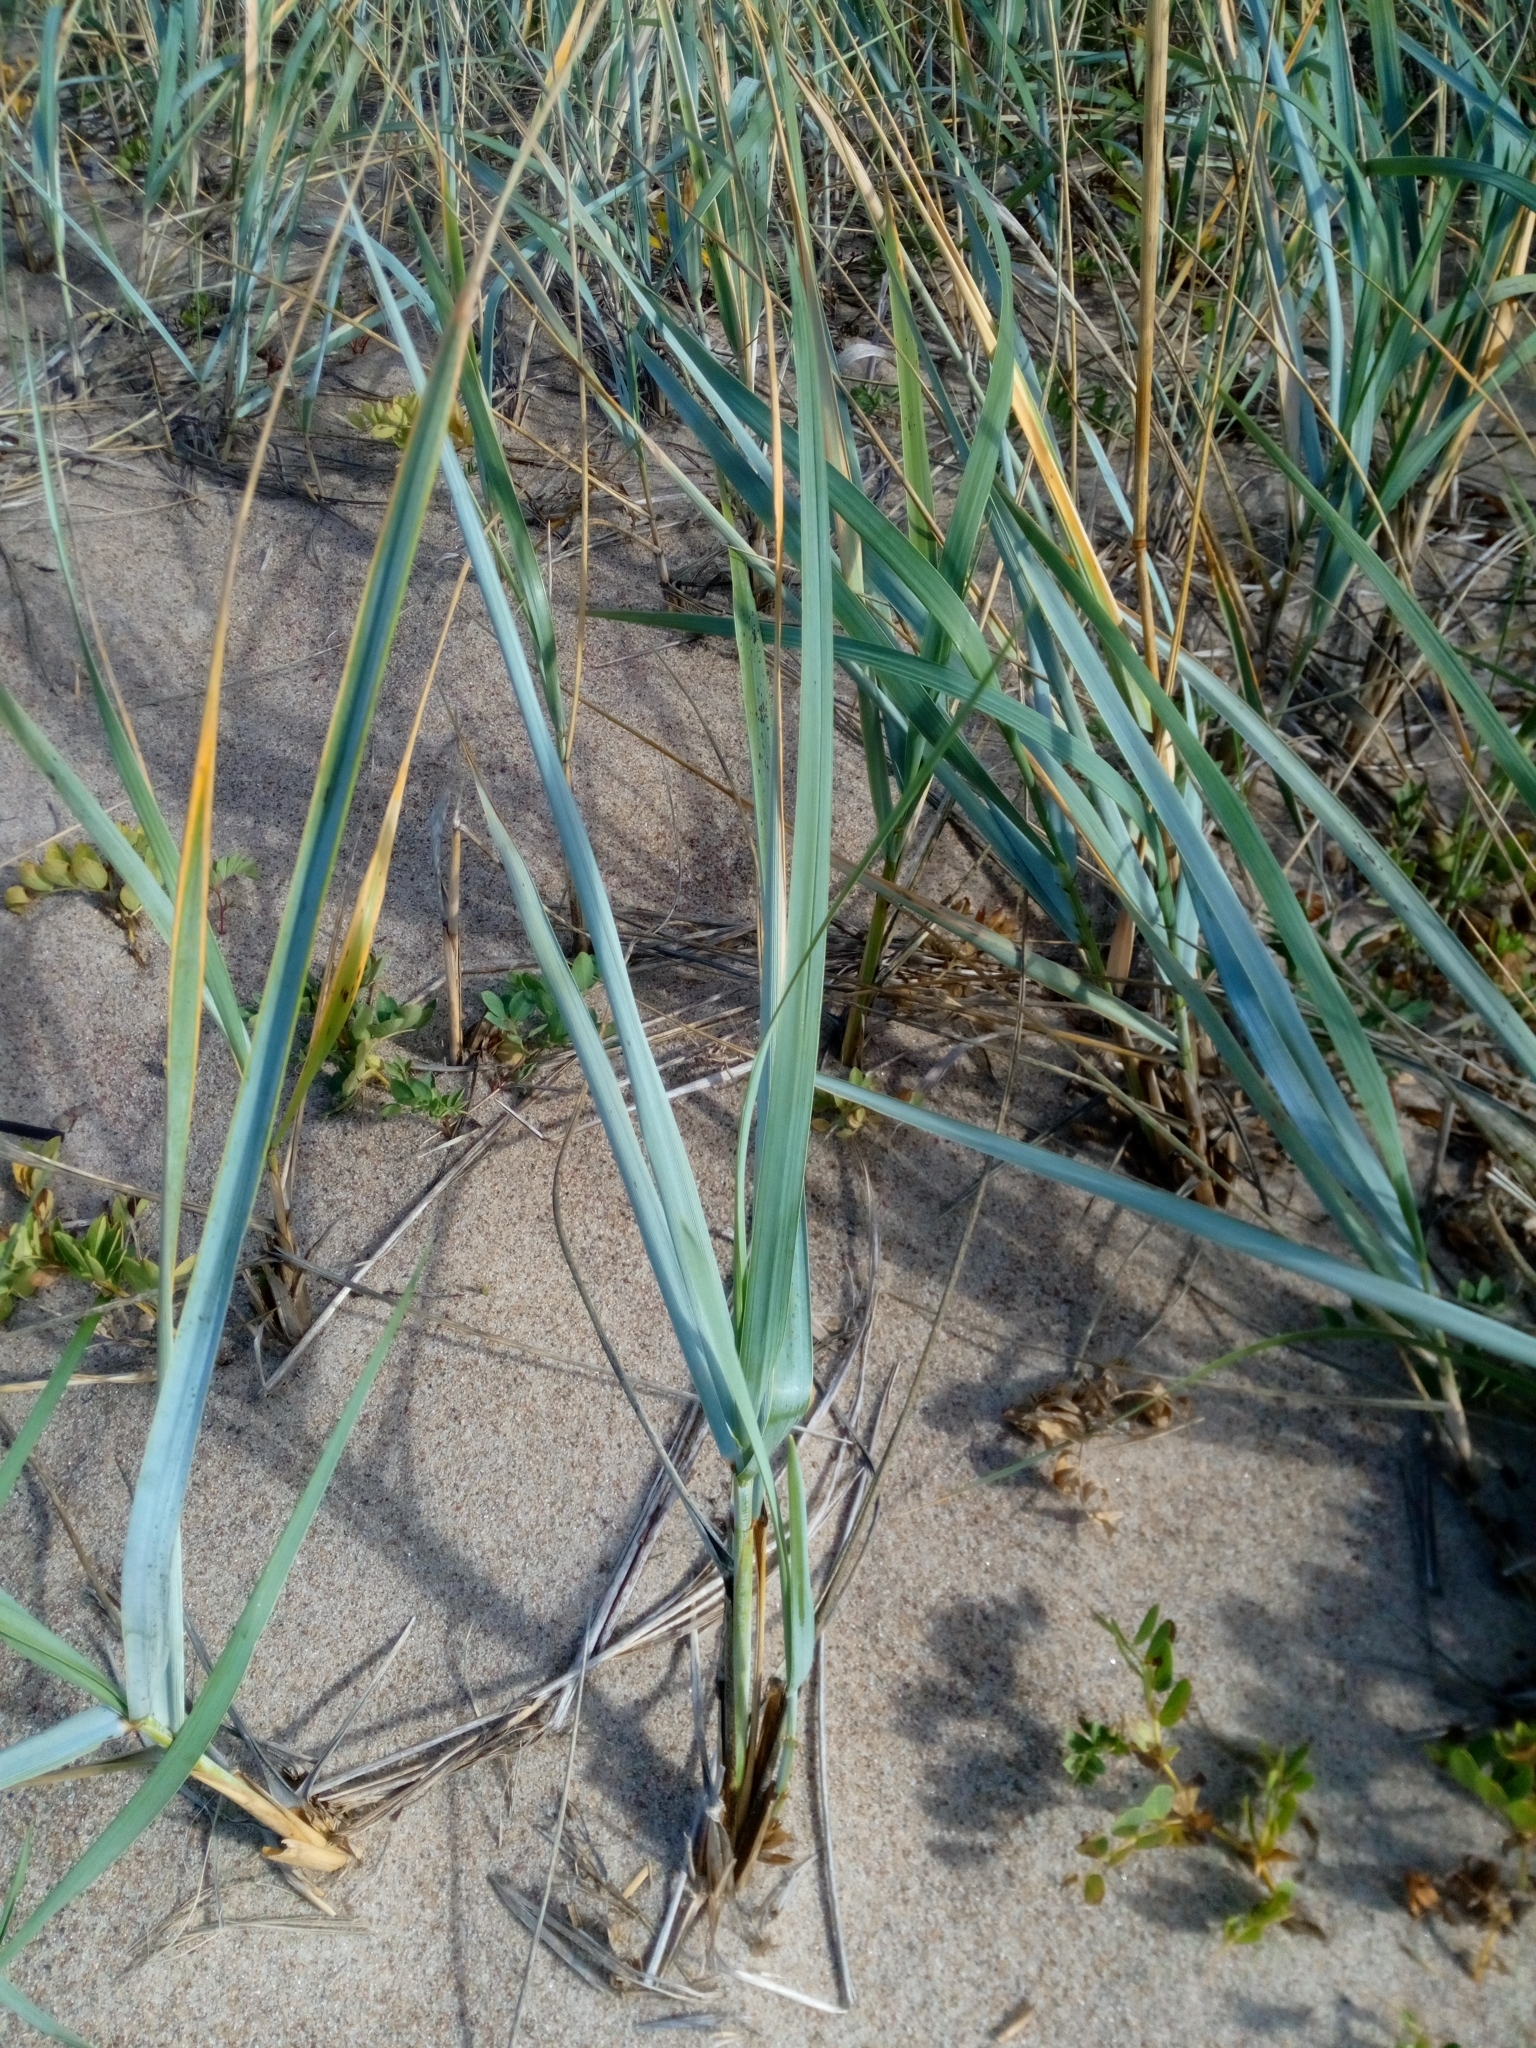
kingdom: Plantae
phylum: Tracheophyta
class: Liliopsida
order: Poales
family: Poaceae
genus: Leymus
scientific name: Leymus arenarius
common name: Lyme-grass
